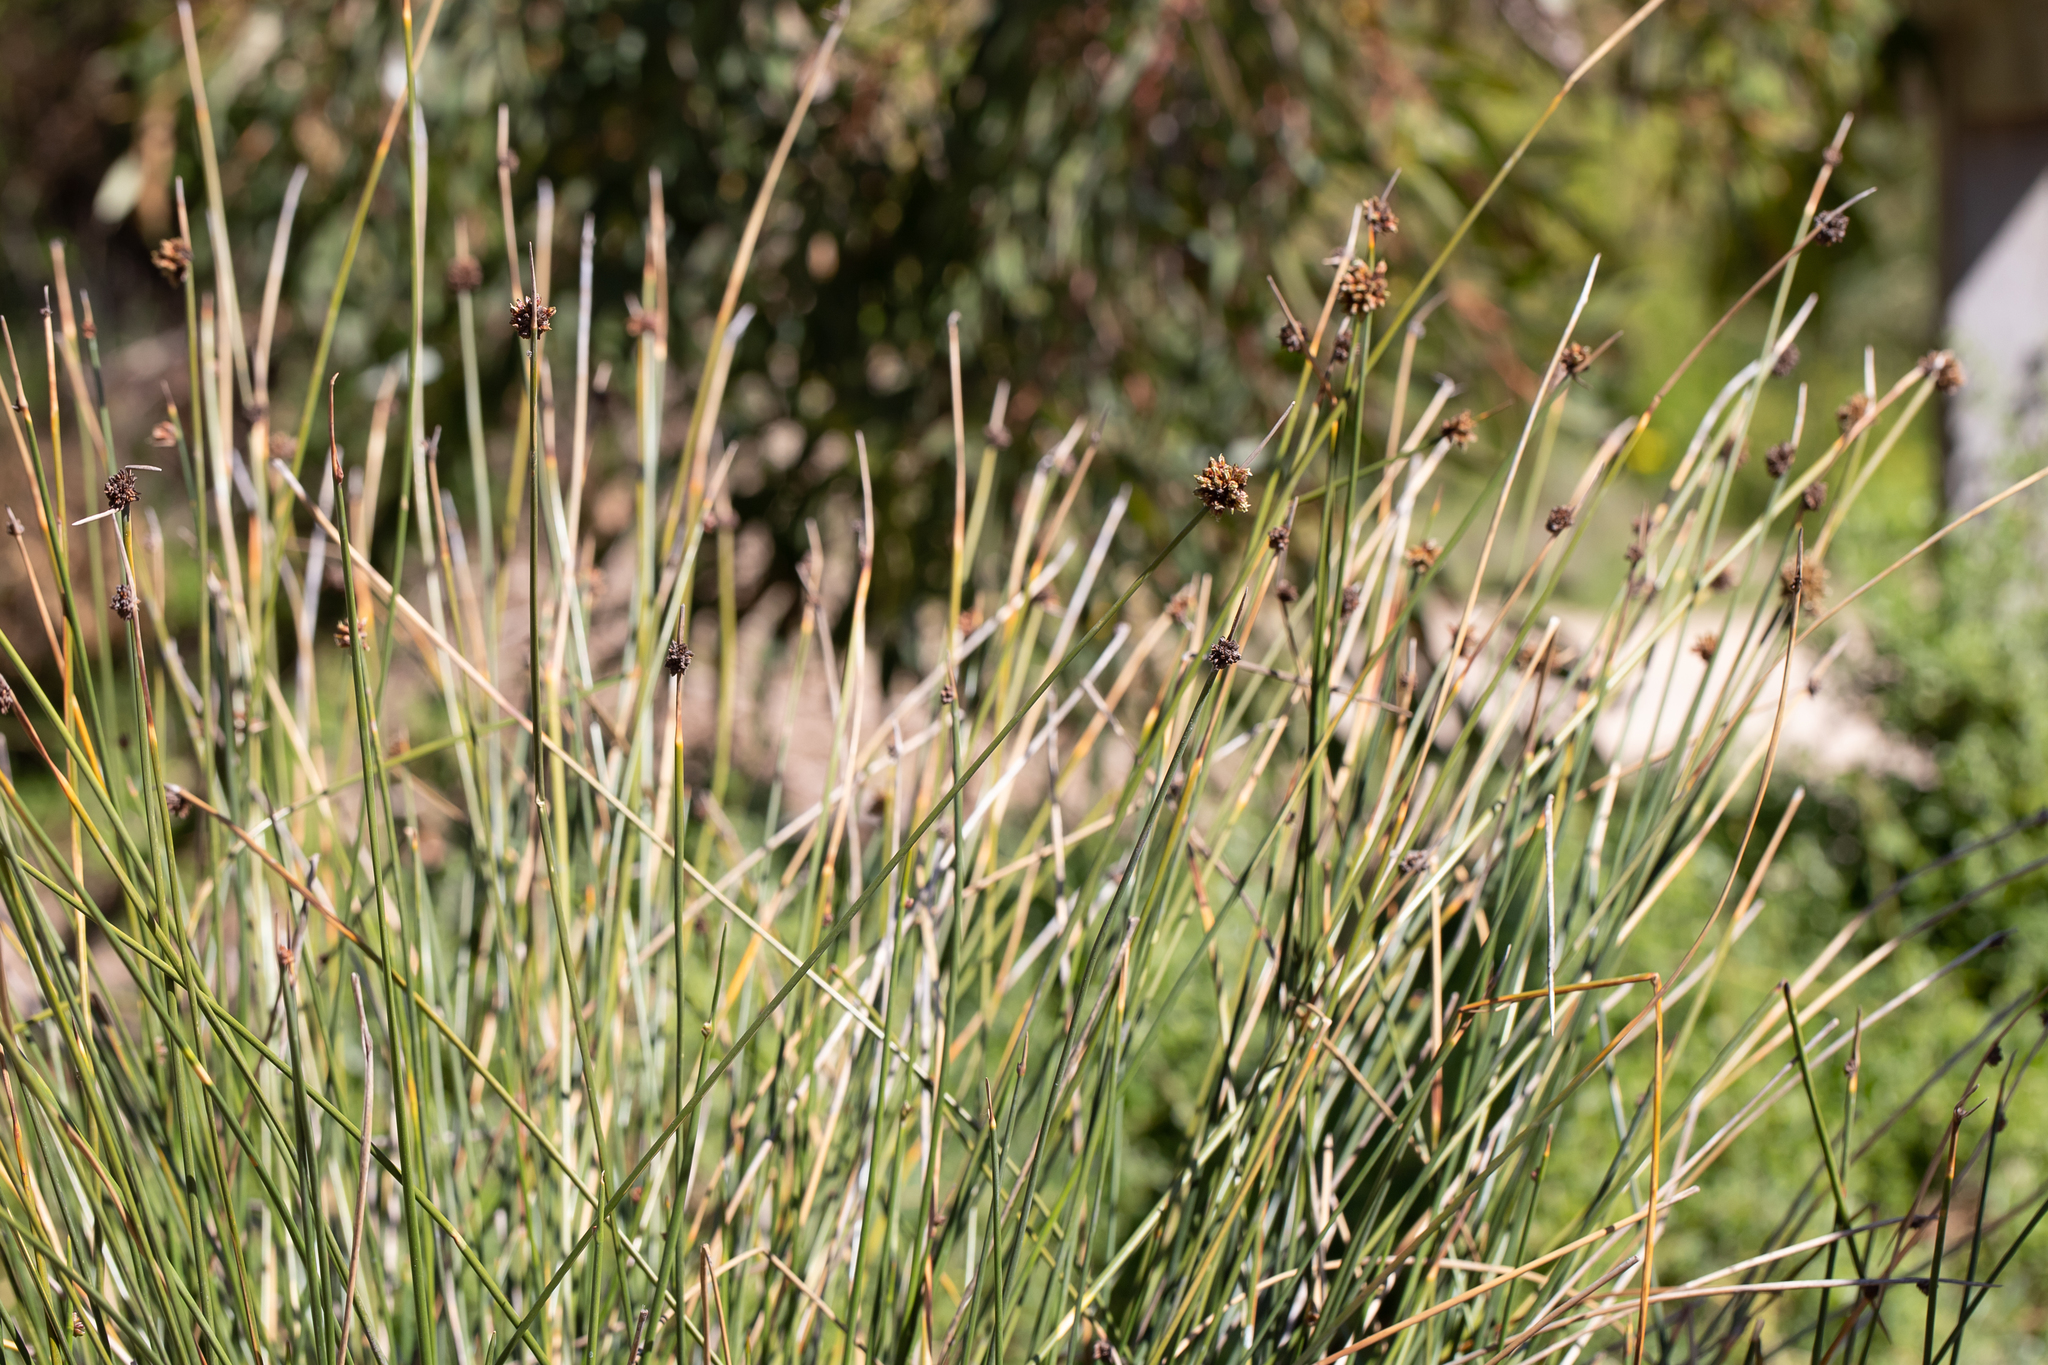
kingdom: Plantae
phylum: Tracheophyta
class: Liliopsida
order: Poales
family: Cyperaceae
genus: Ficinia
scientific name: Ficinia nodosa
